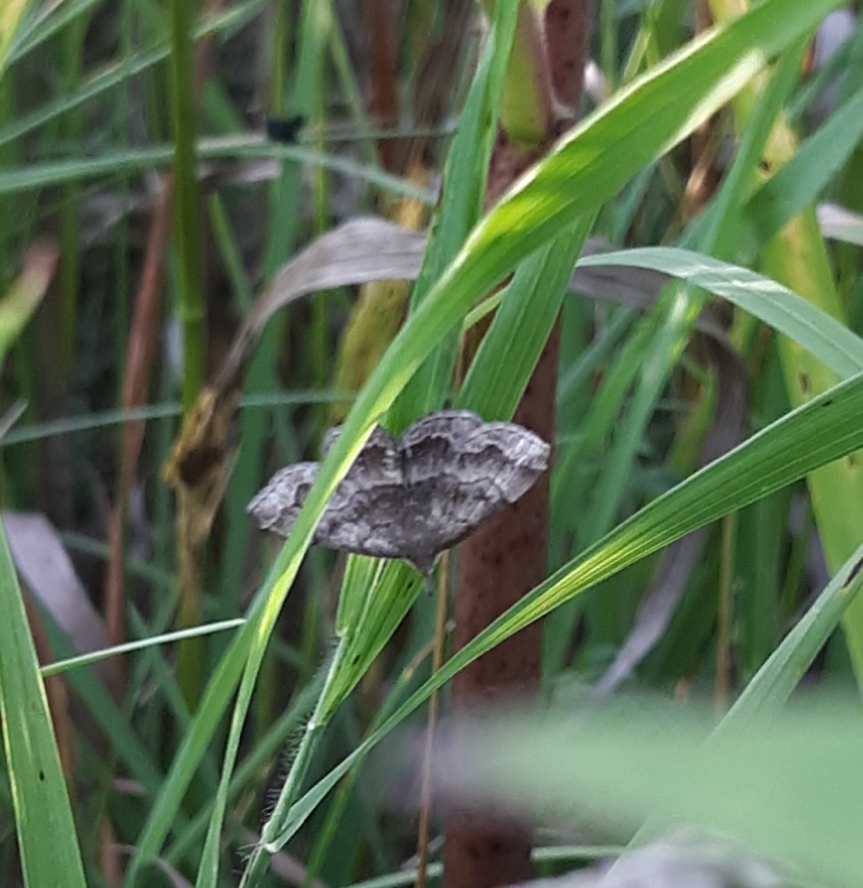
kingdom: Animalia
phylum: Arthropoda
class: Insecta
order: Lepidoptera
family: Erebidae
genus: Phalaenostola
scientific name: Phalaenostola larentioides
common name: Black-banded owlet
